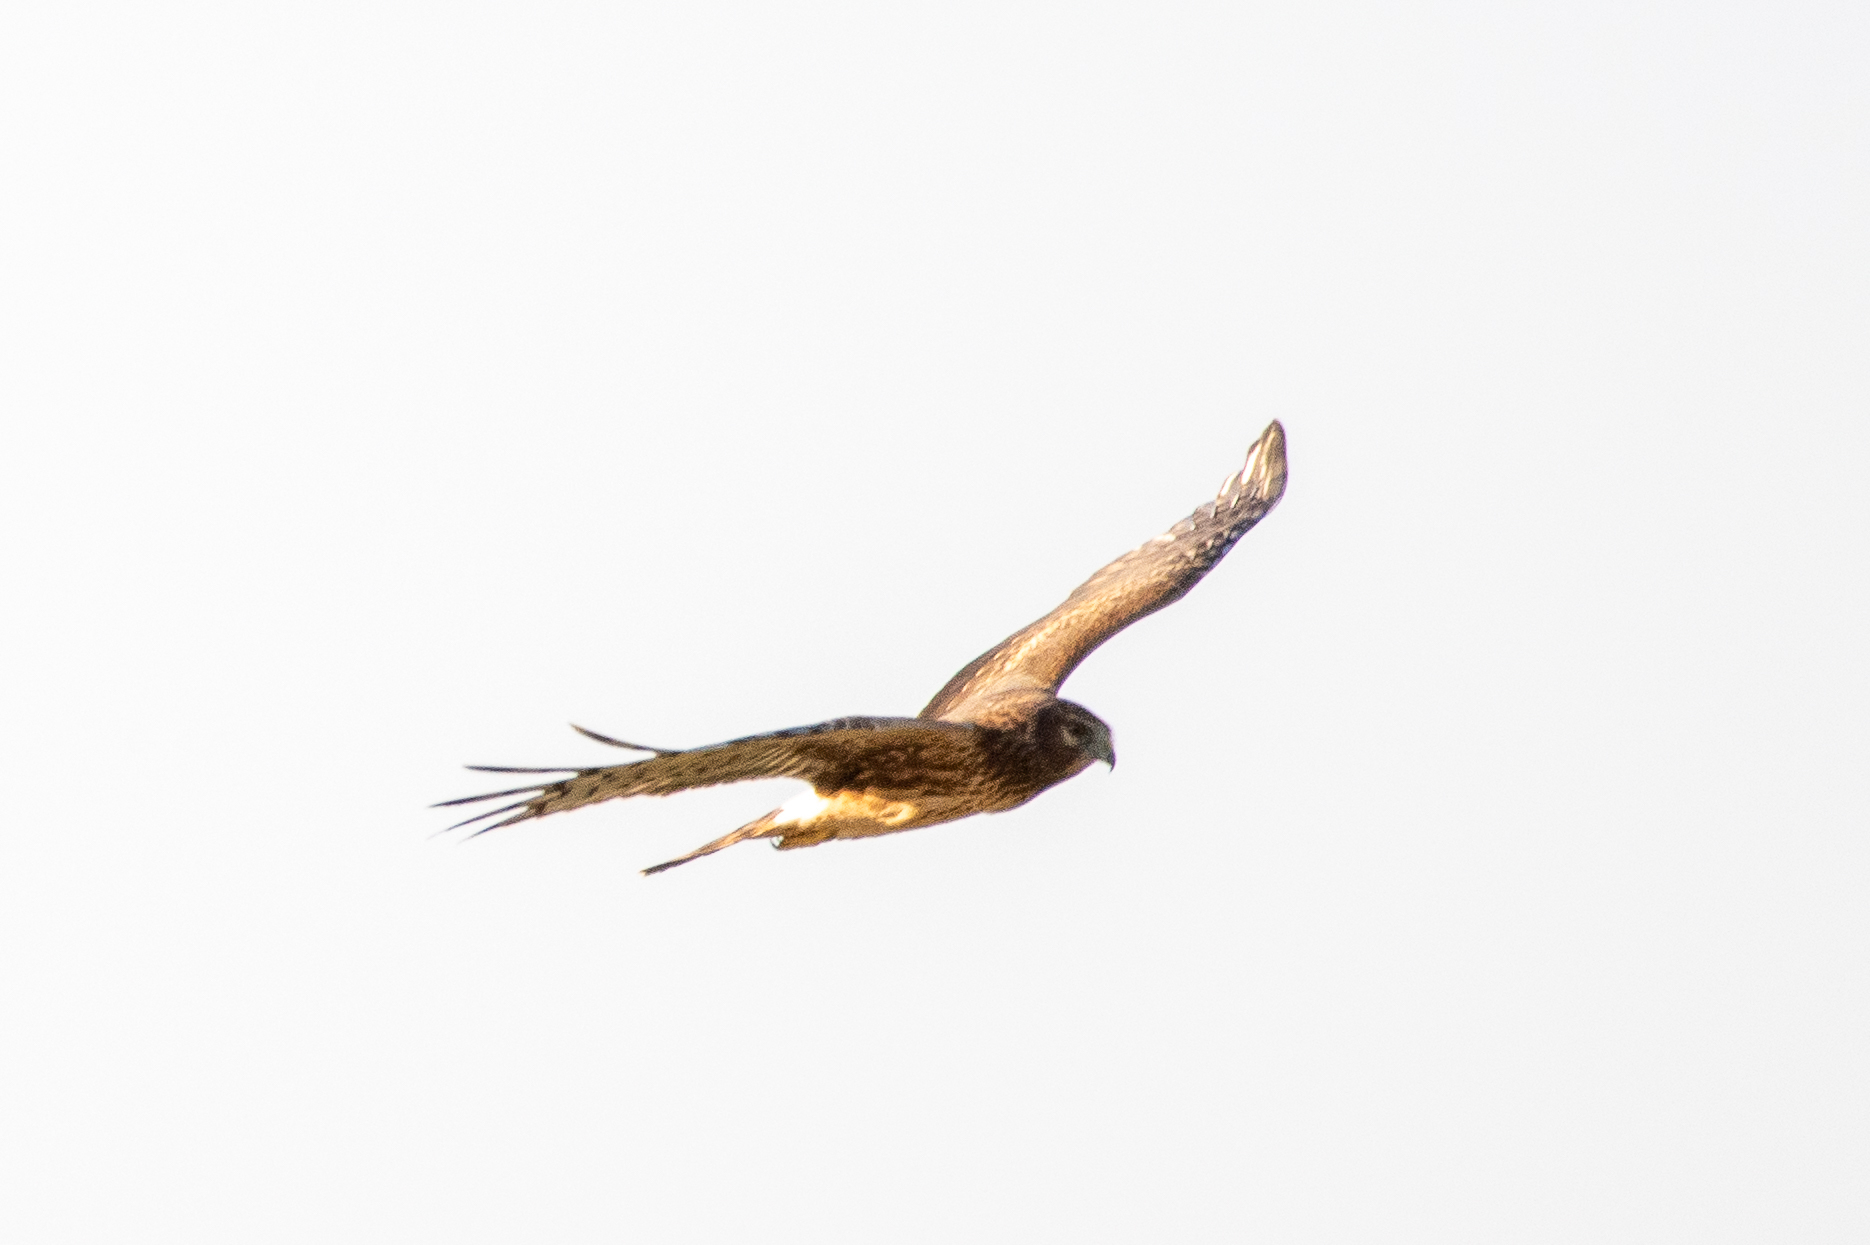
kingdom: Animalia
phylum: Chordata
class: Aves
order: Accipitriformes
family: Accipitridae
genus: Circus
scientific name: Circus cyaneus
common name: Hen harrier
